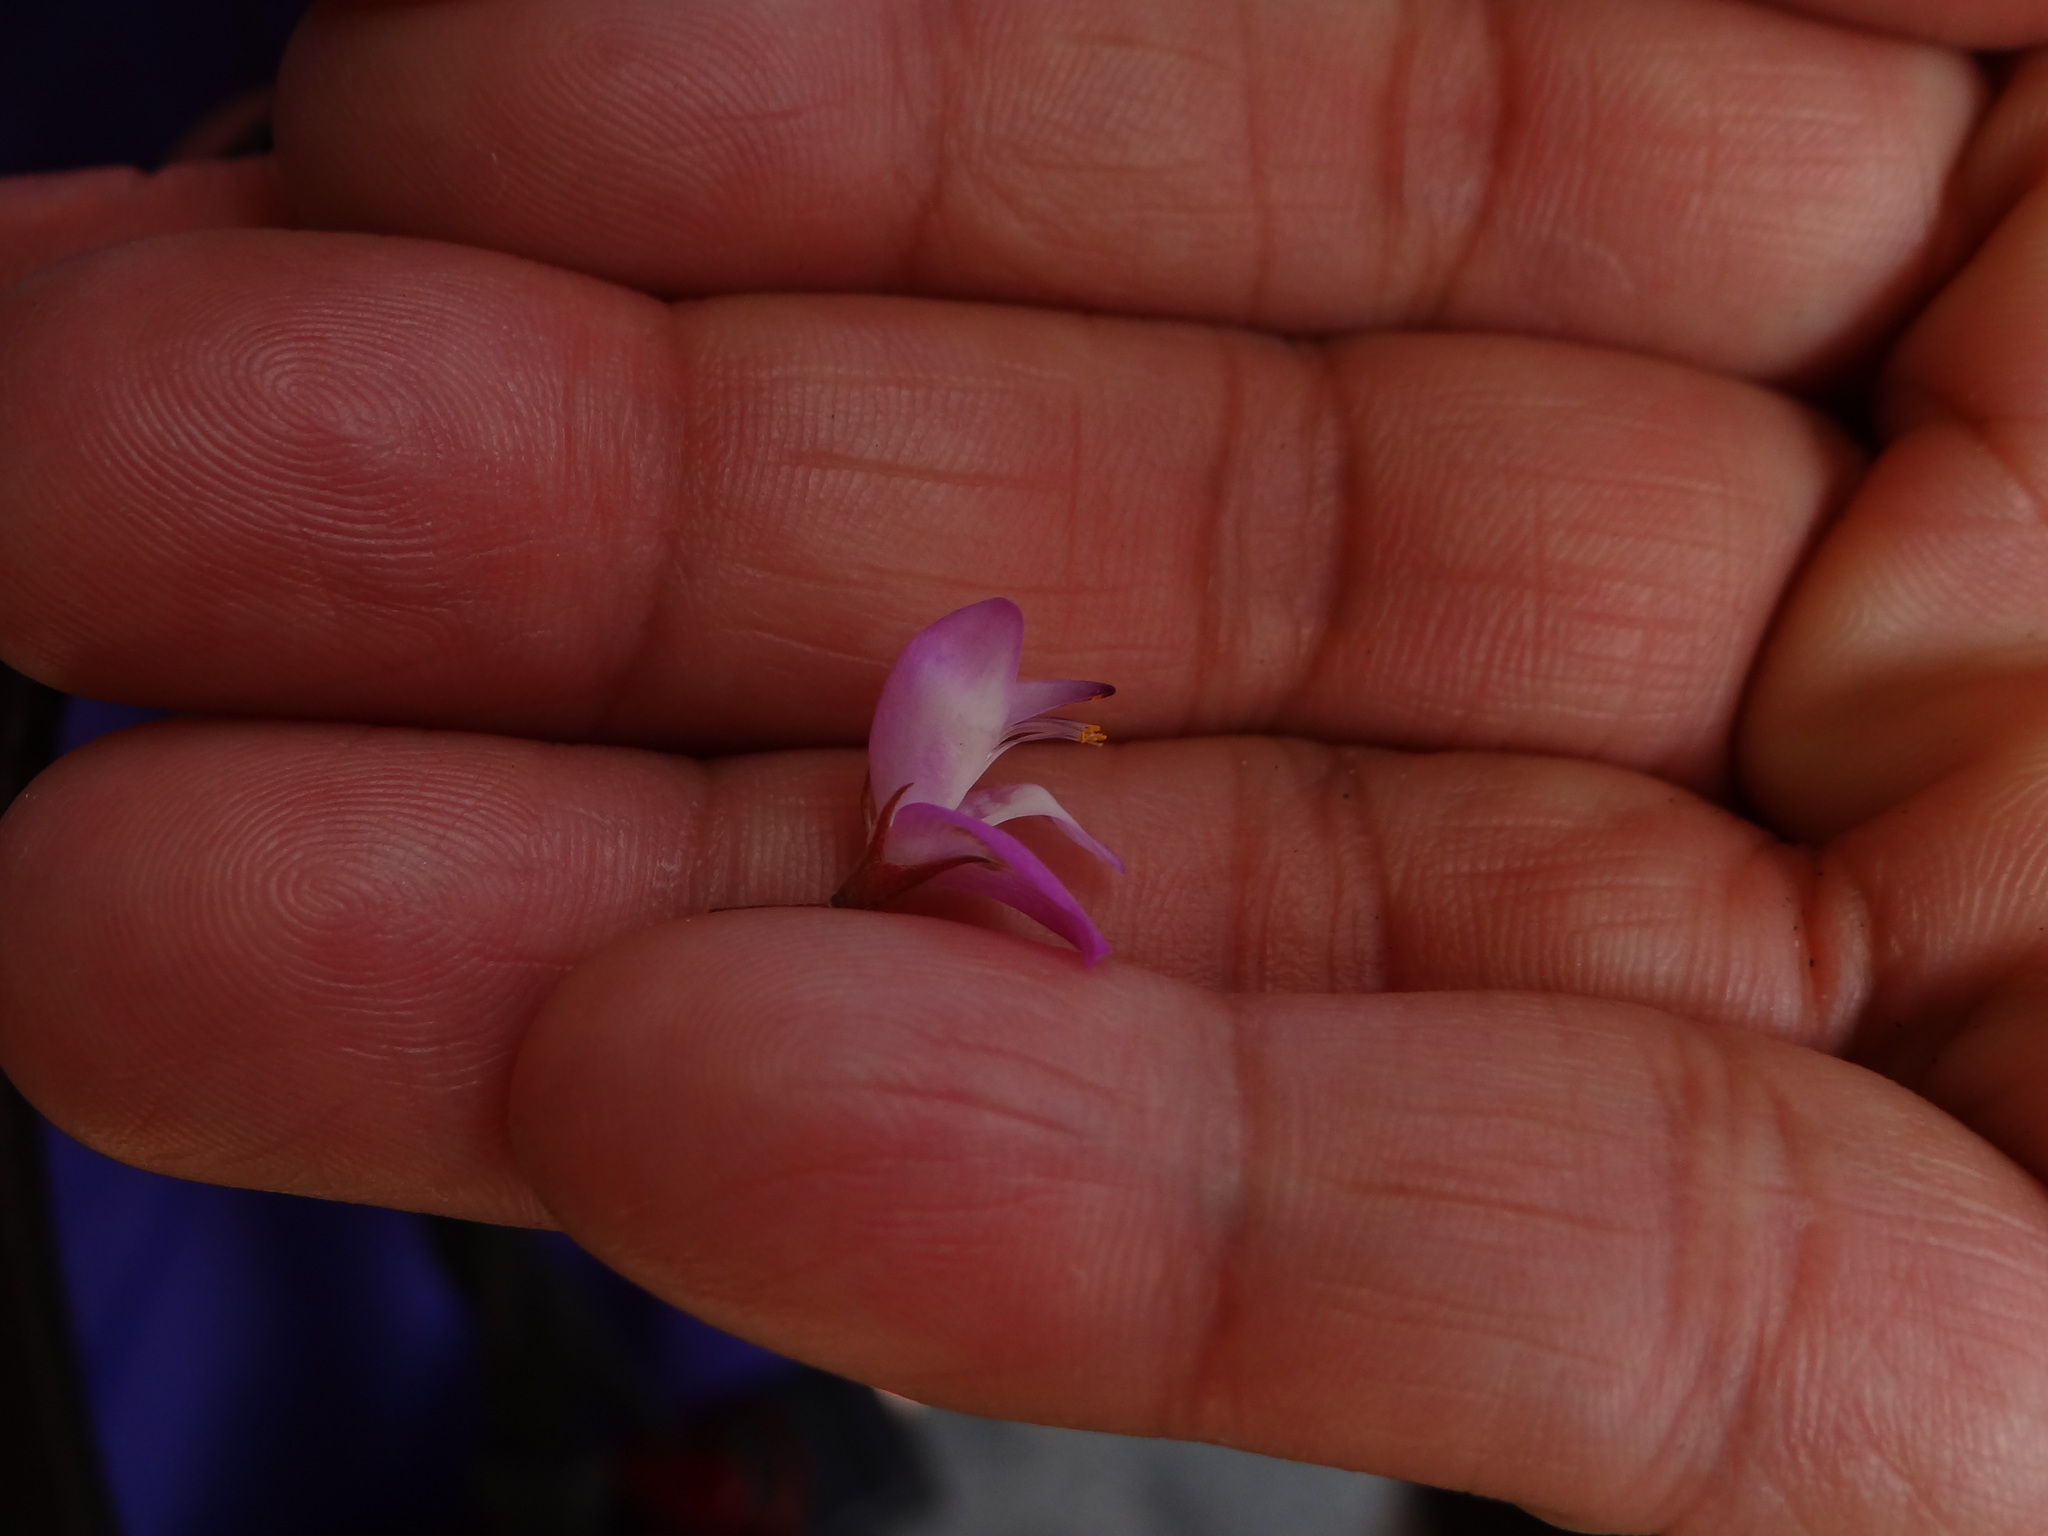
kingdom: Plantae
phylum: Tracheophyta
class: Magnoliopsida
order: Fabales
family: Fabaceae
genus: Campylotropis
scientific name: Campylotropis macrocarpa
